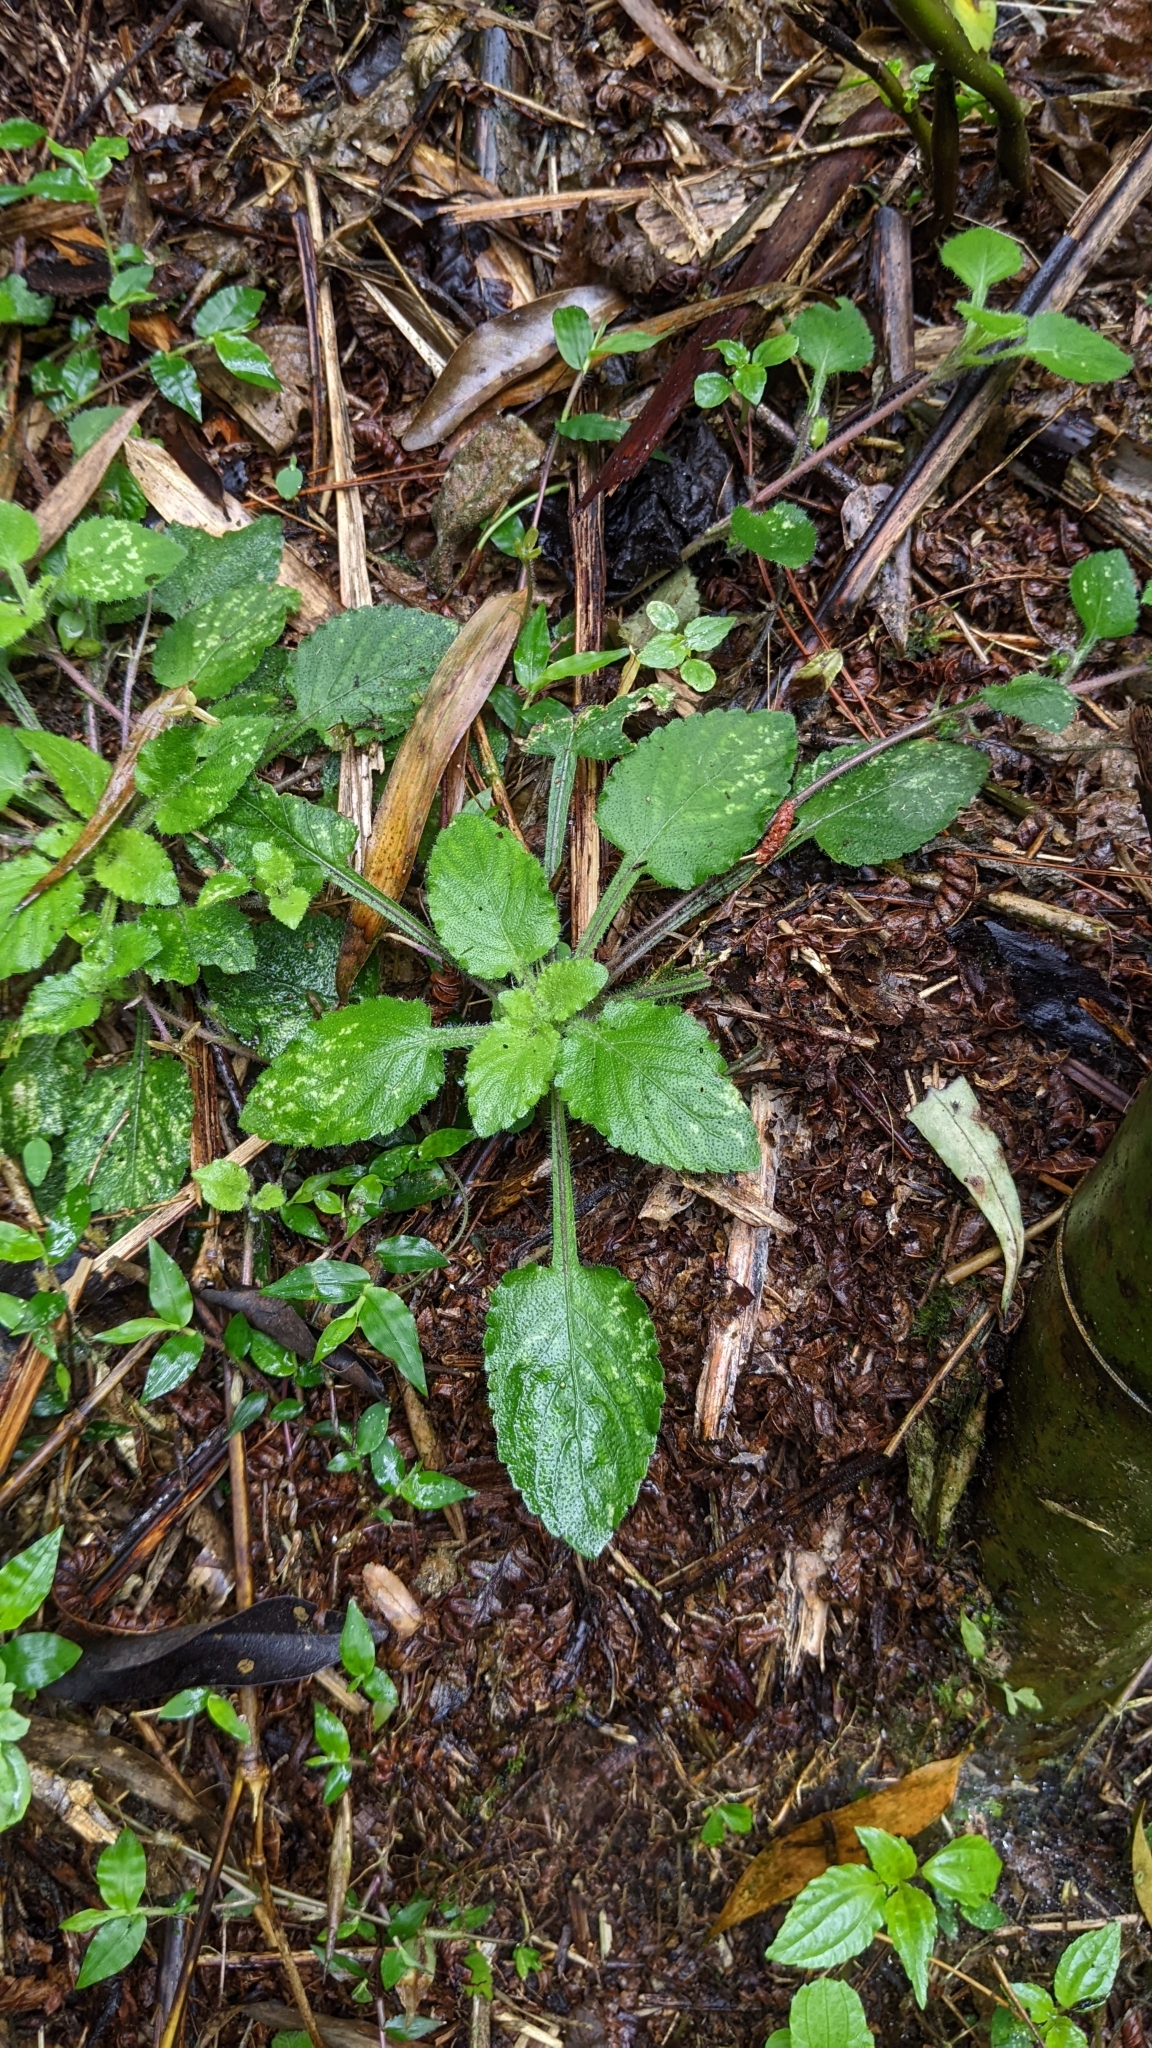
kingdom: Plantae
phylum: Tracheophyta
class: Magnoliopsida
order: Malpighiales
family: Violaceae
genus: Viola
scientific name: Viola diffusa
